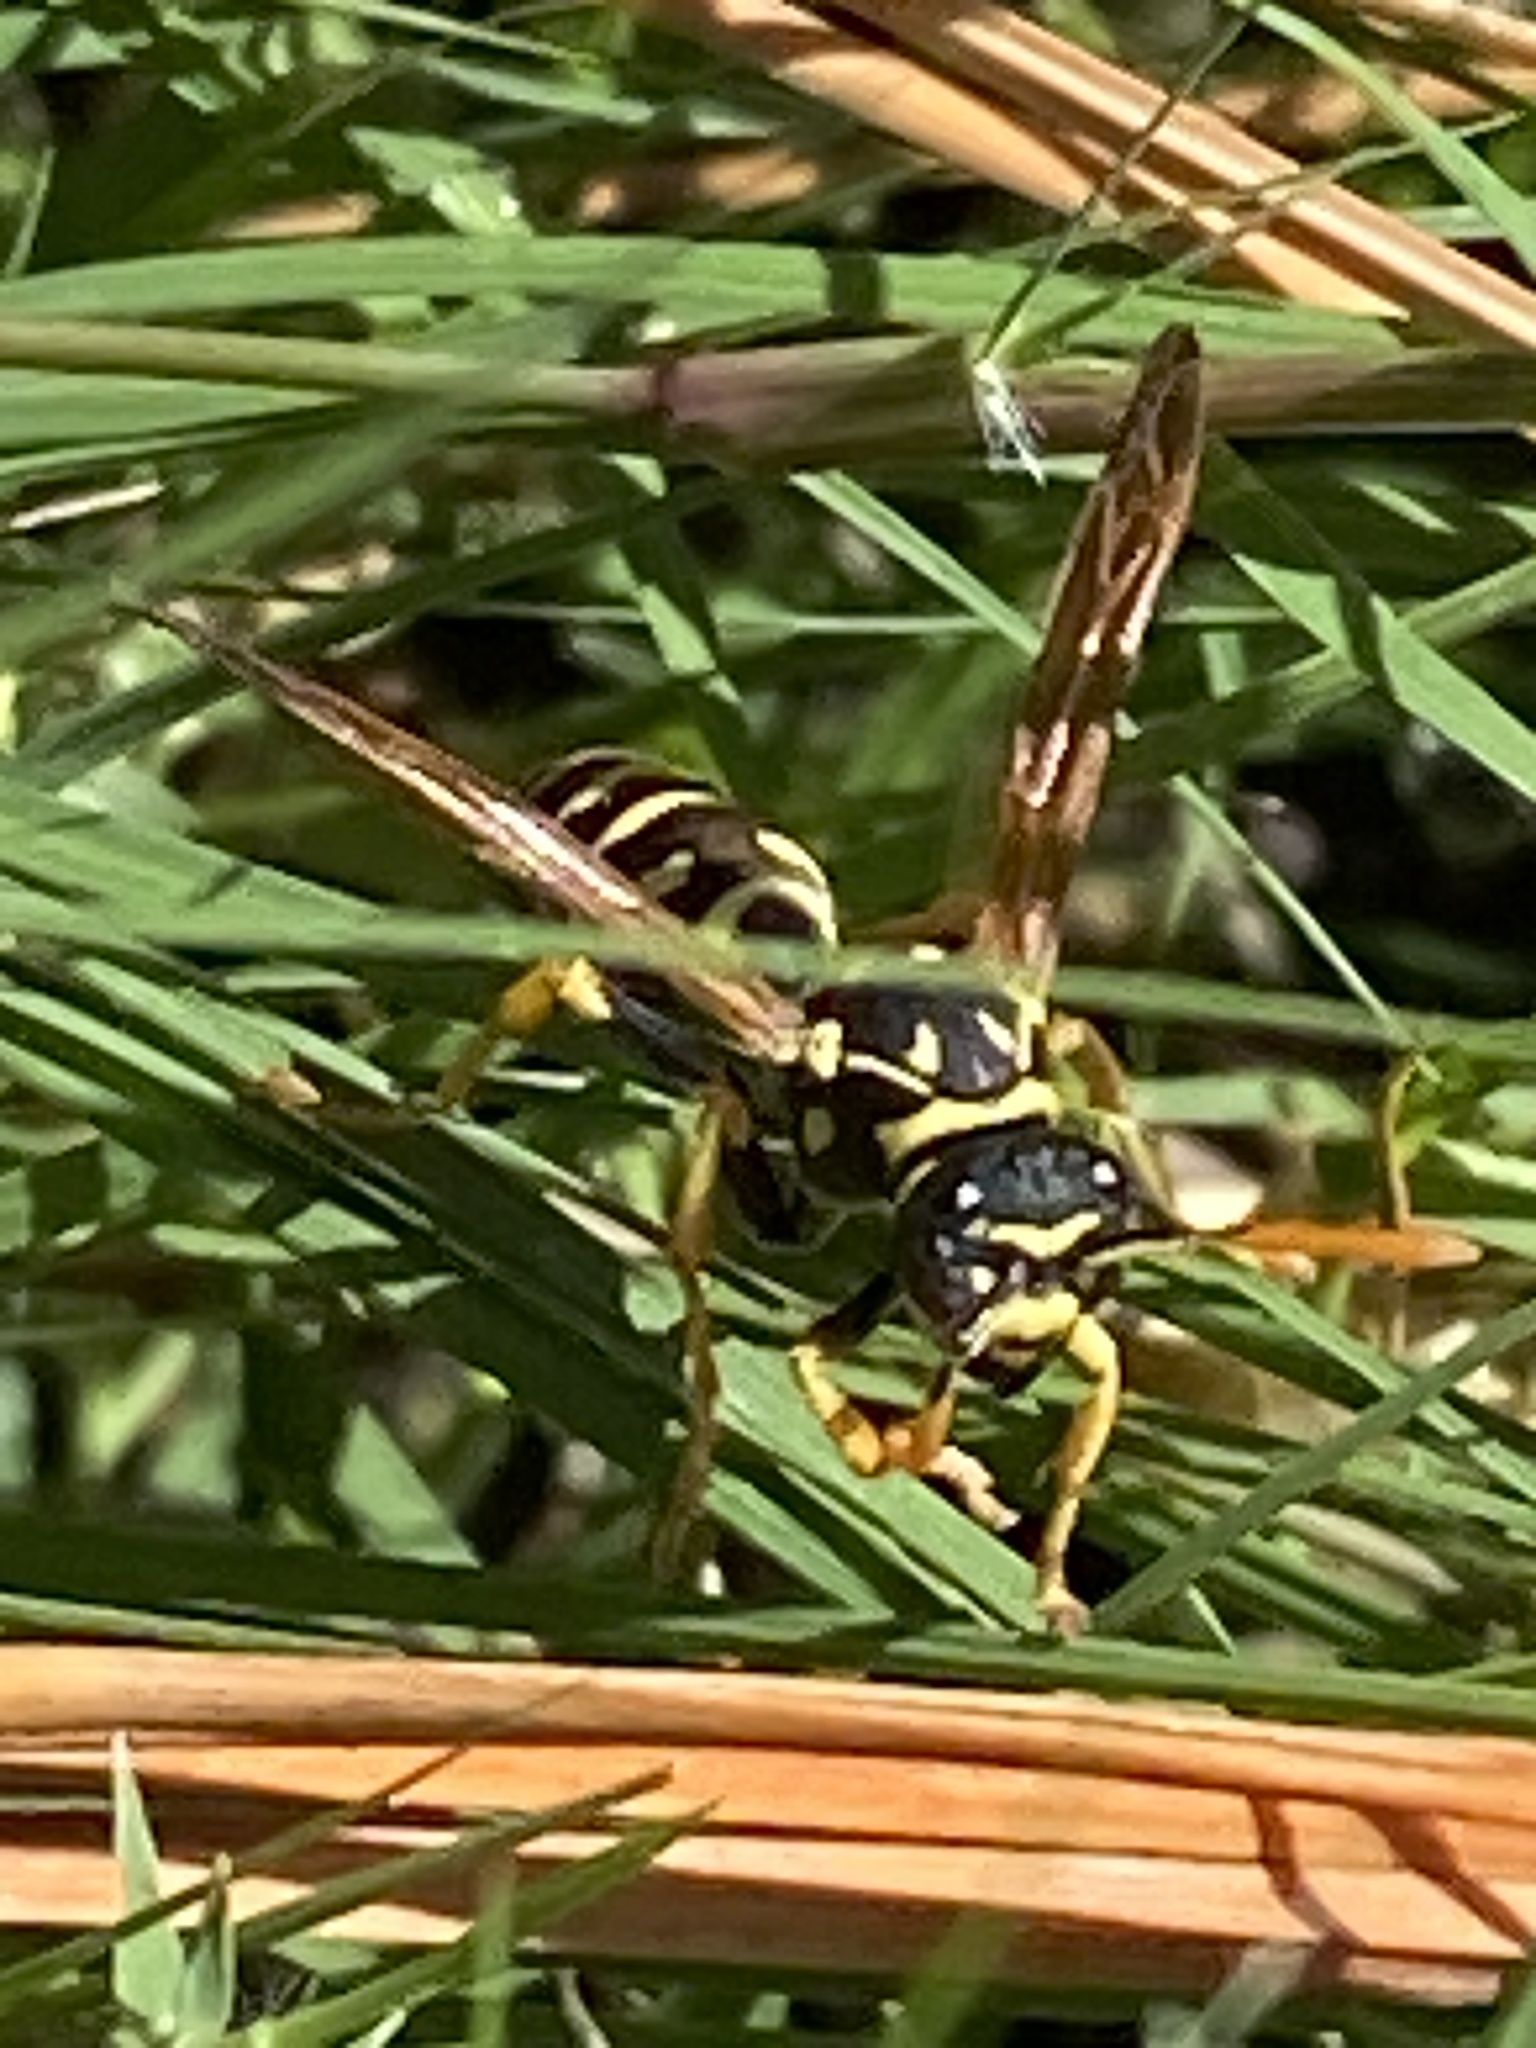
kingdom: Animalia
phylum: Arthropoda
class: Insecta
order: Hymenoptera
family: Eumenidae
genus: Polistes
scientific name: Polistes dominula
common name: Paper wasp
